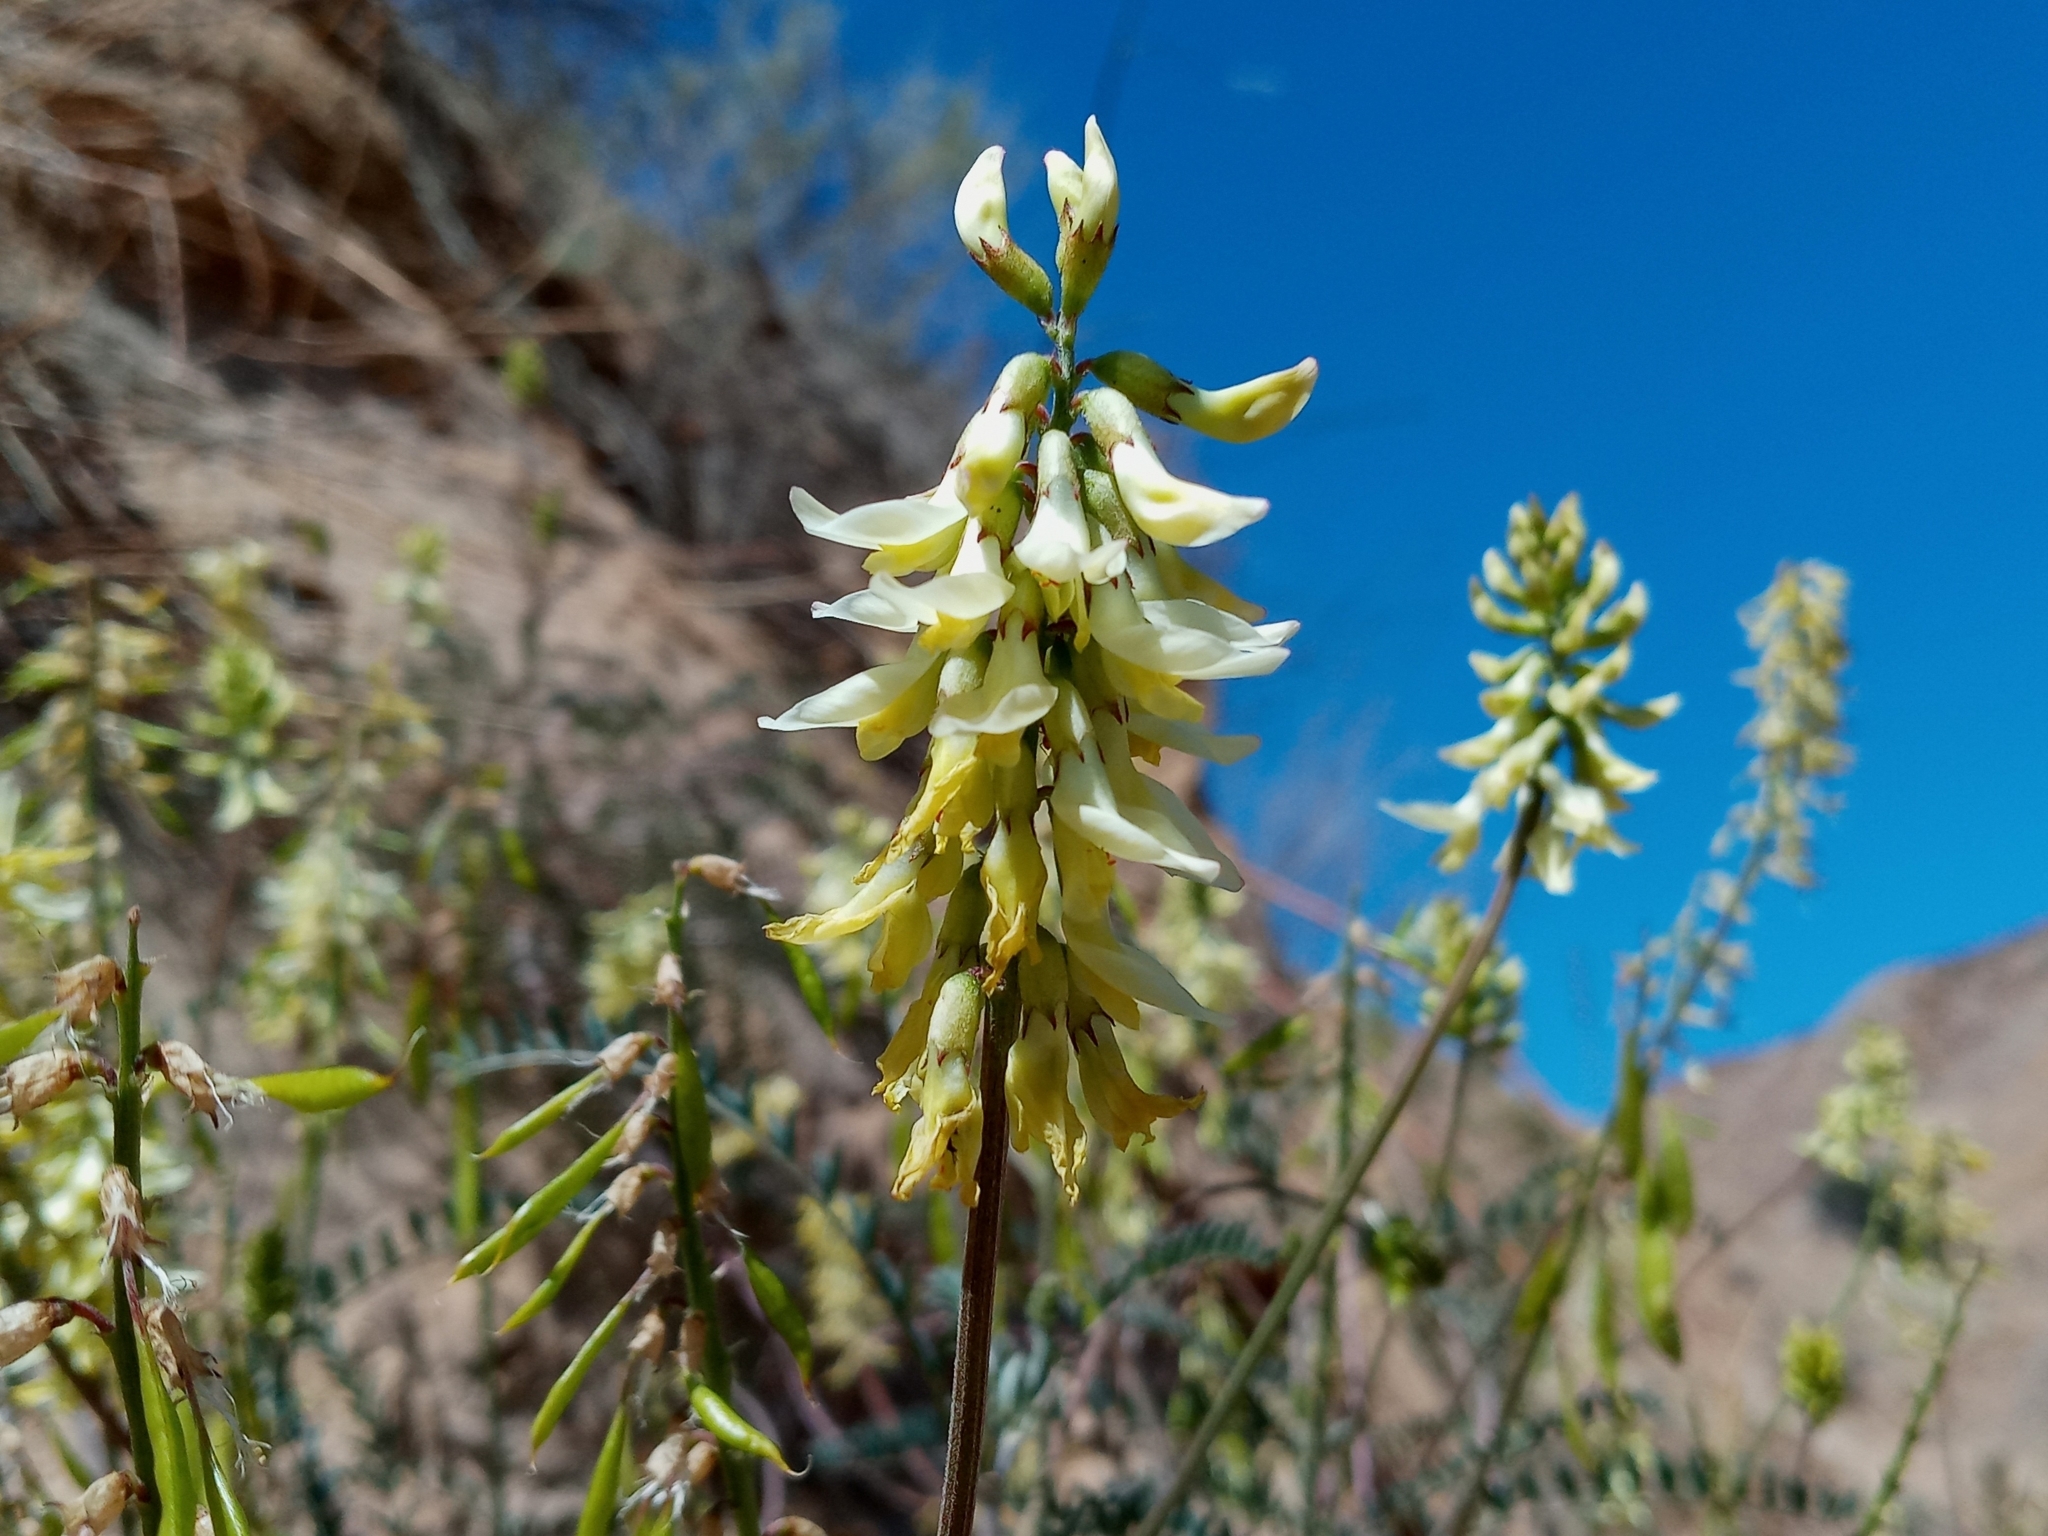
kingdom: Plantae
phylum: Tracheophyta
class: Magnoliopsida
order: Fabales
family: Fabaceae
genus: Astragalus
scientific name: Astragalus trichopodus
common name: Santa barbara milk-vetch
